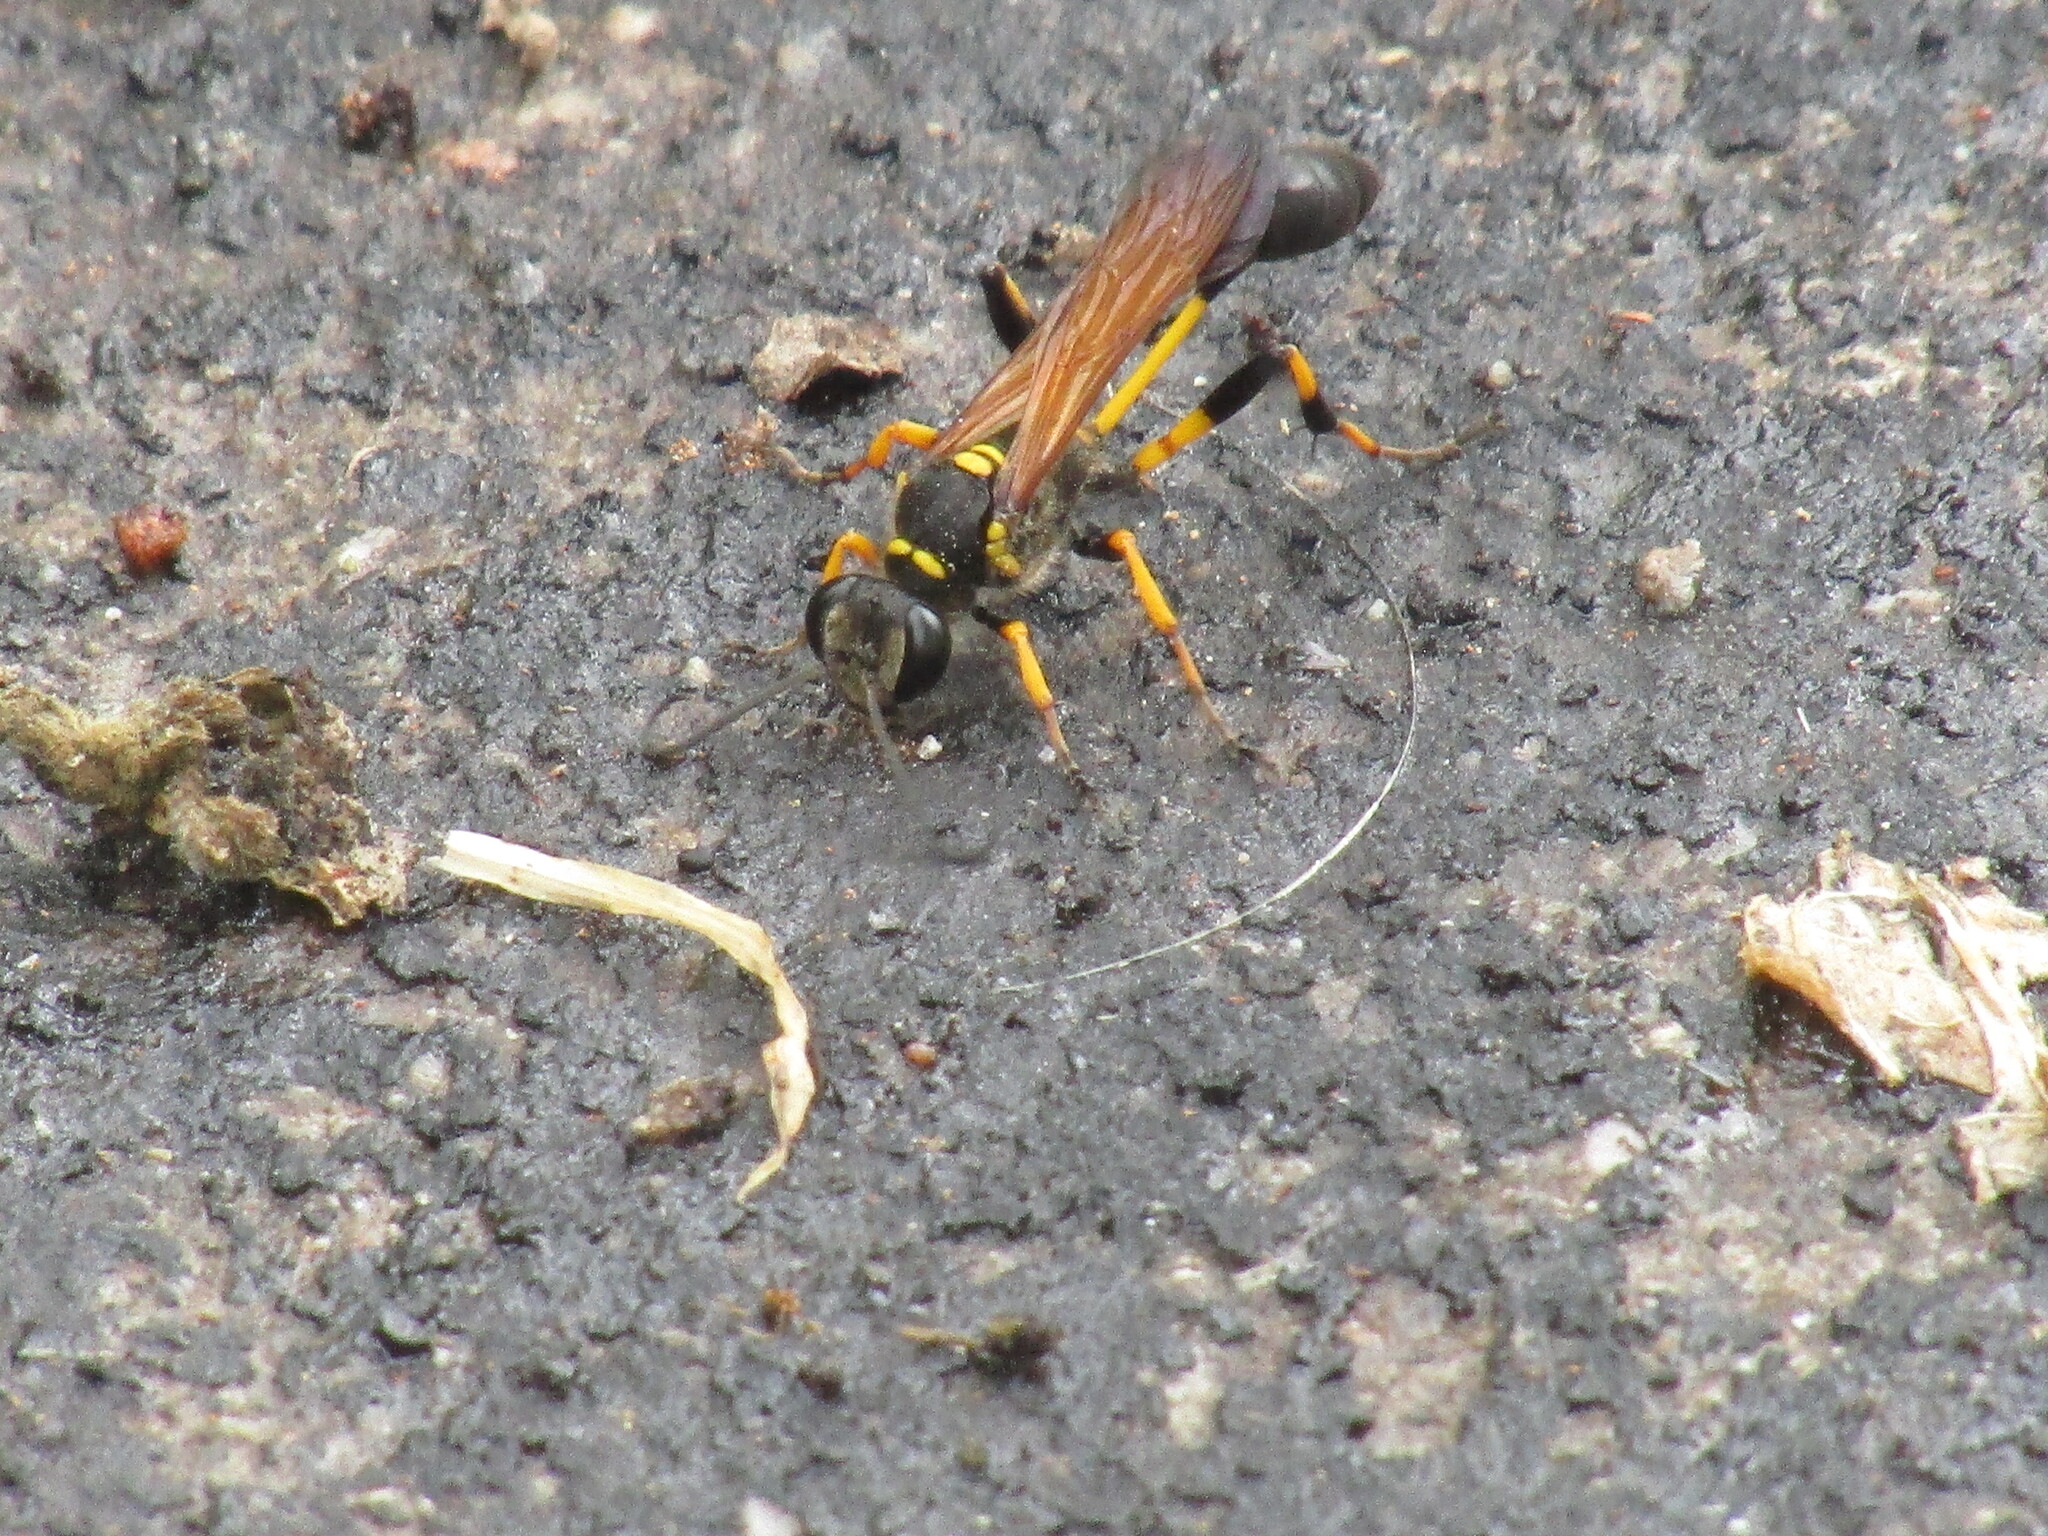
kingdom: Animalia
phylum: Arthropoda
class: Insecta
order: Hymenoptera
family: Sphecidae
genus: Sceliphron
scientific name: Sceliphron madraspatanum
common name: Mud dauber
